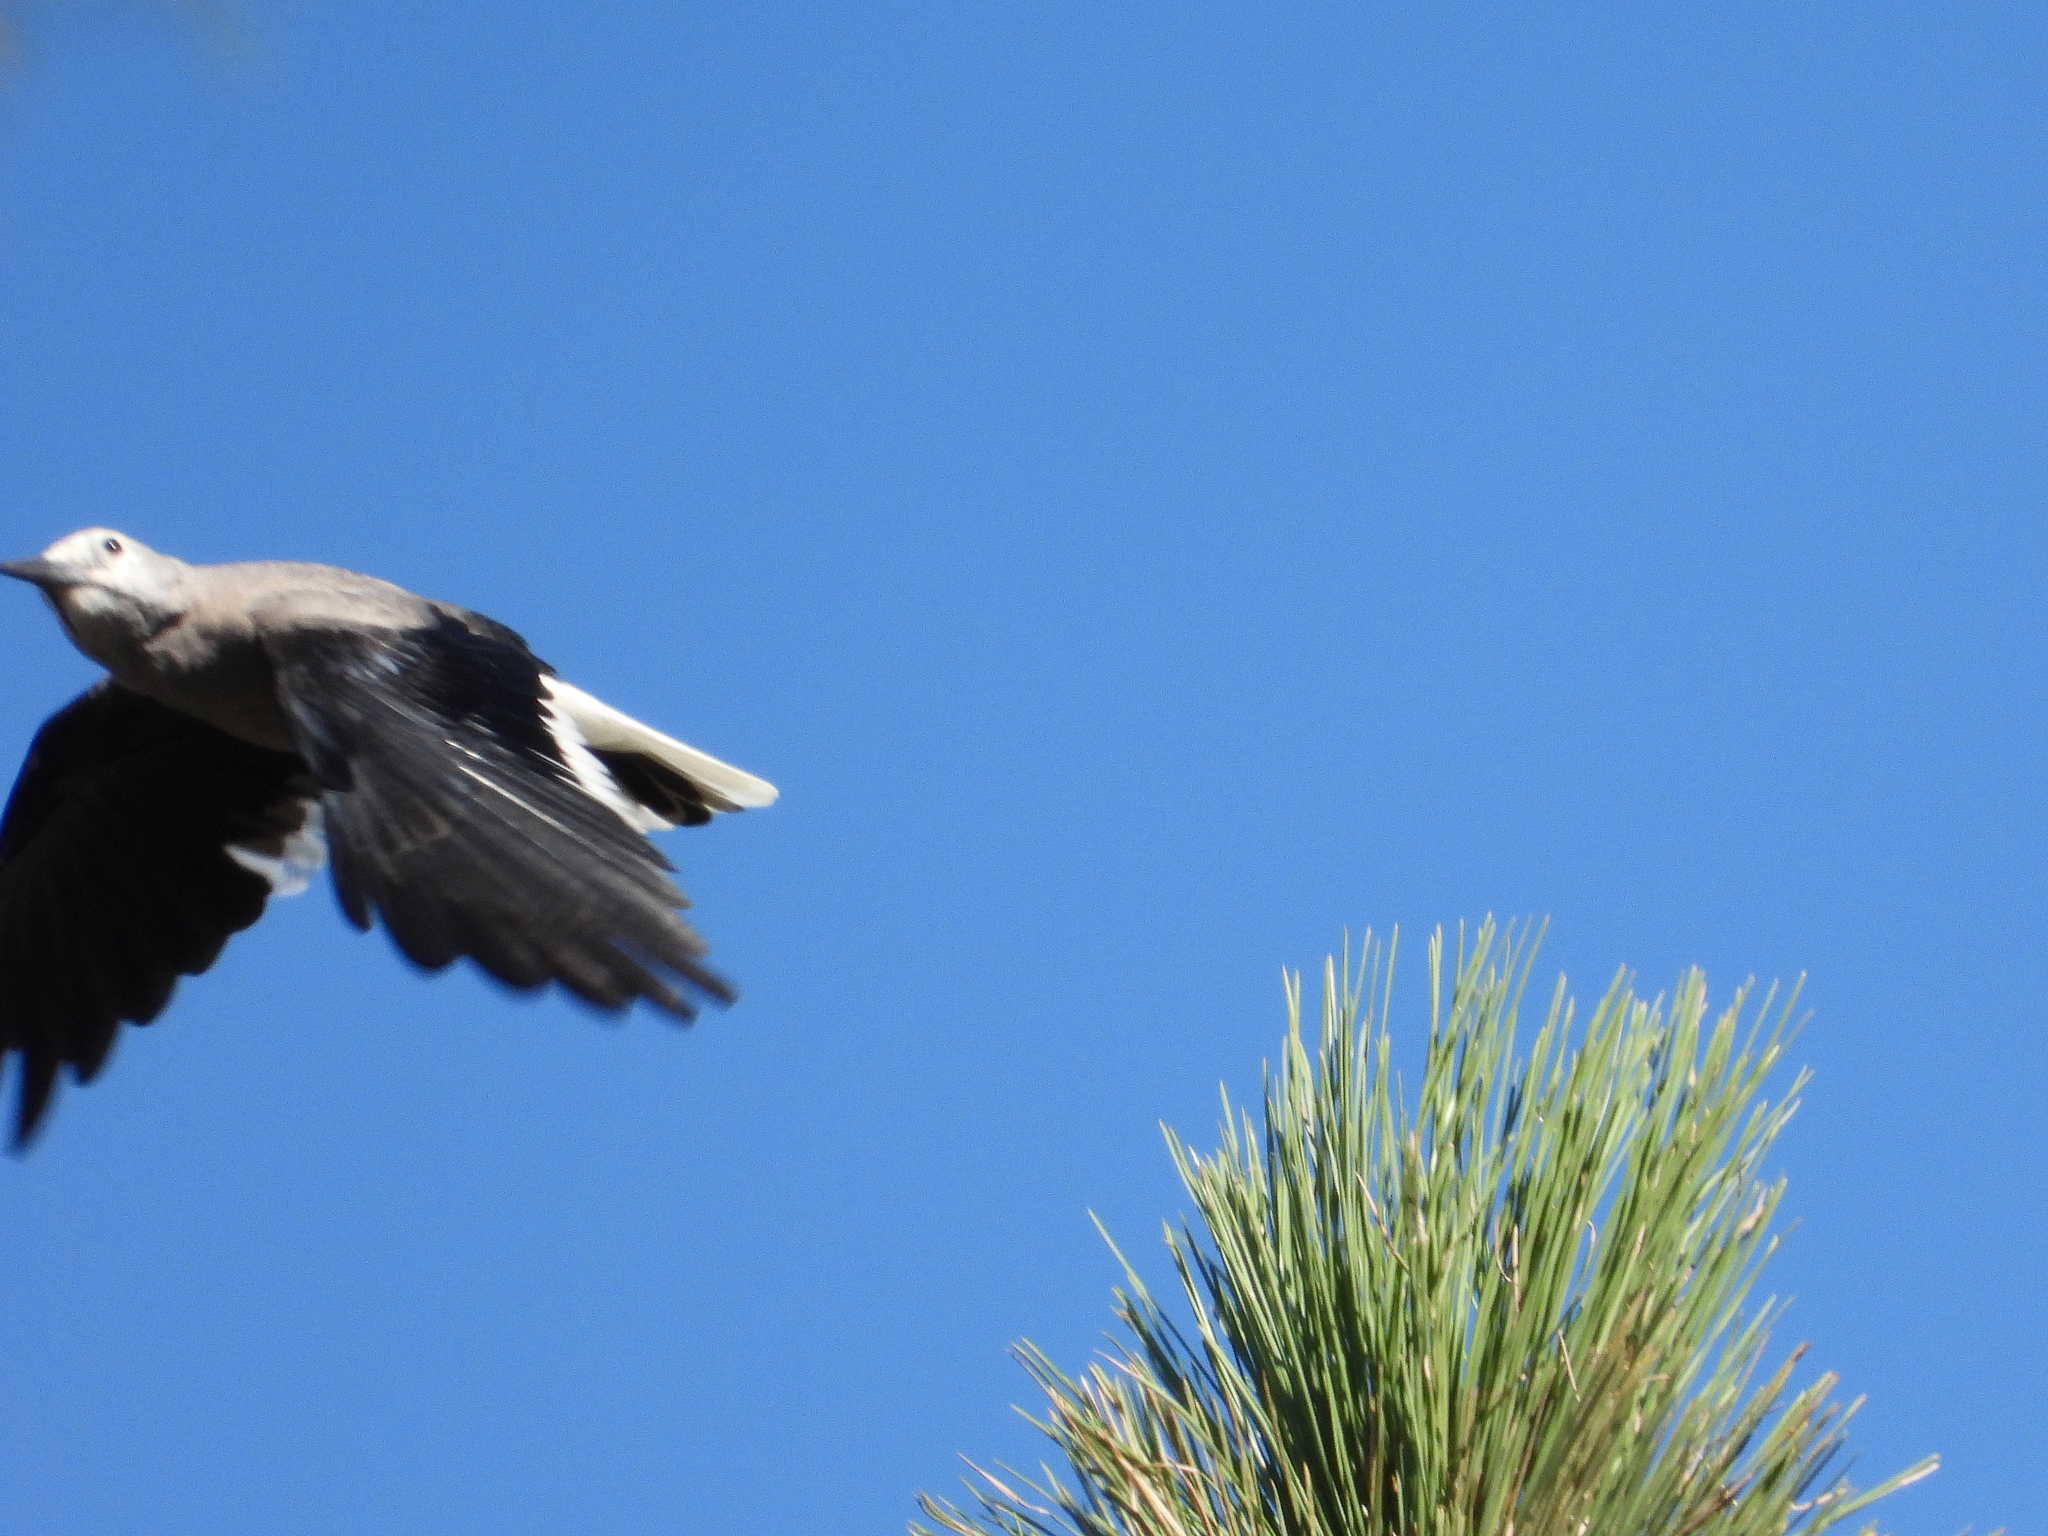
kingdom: Animalia
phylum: Chordata
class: Aves
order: Passeriformes
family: Corvidae
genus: Nucifraga
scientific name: Nucifraga columbiana
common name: Clark's nutcracker
